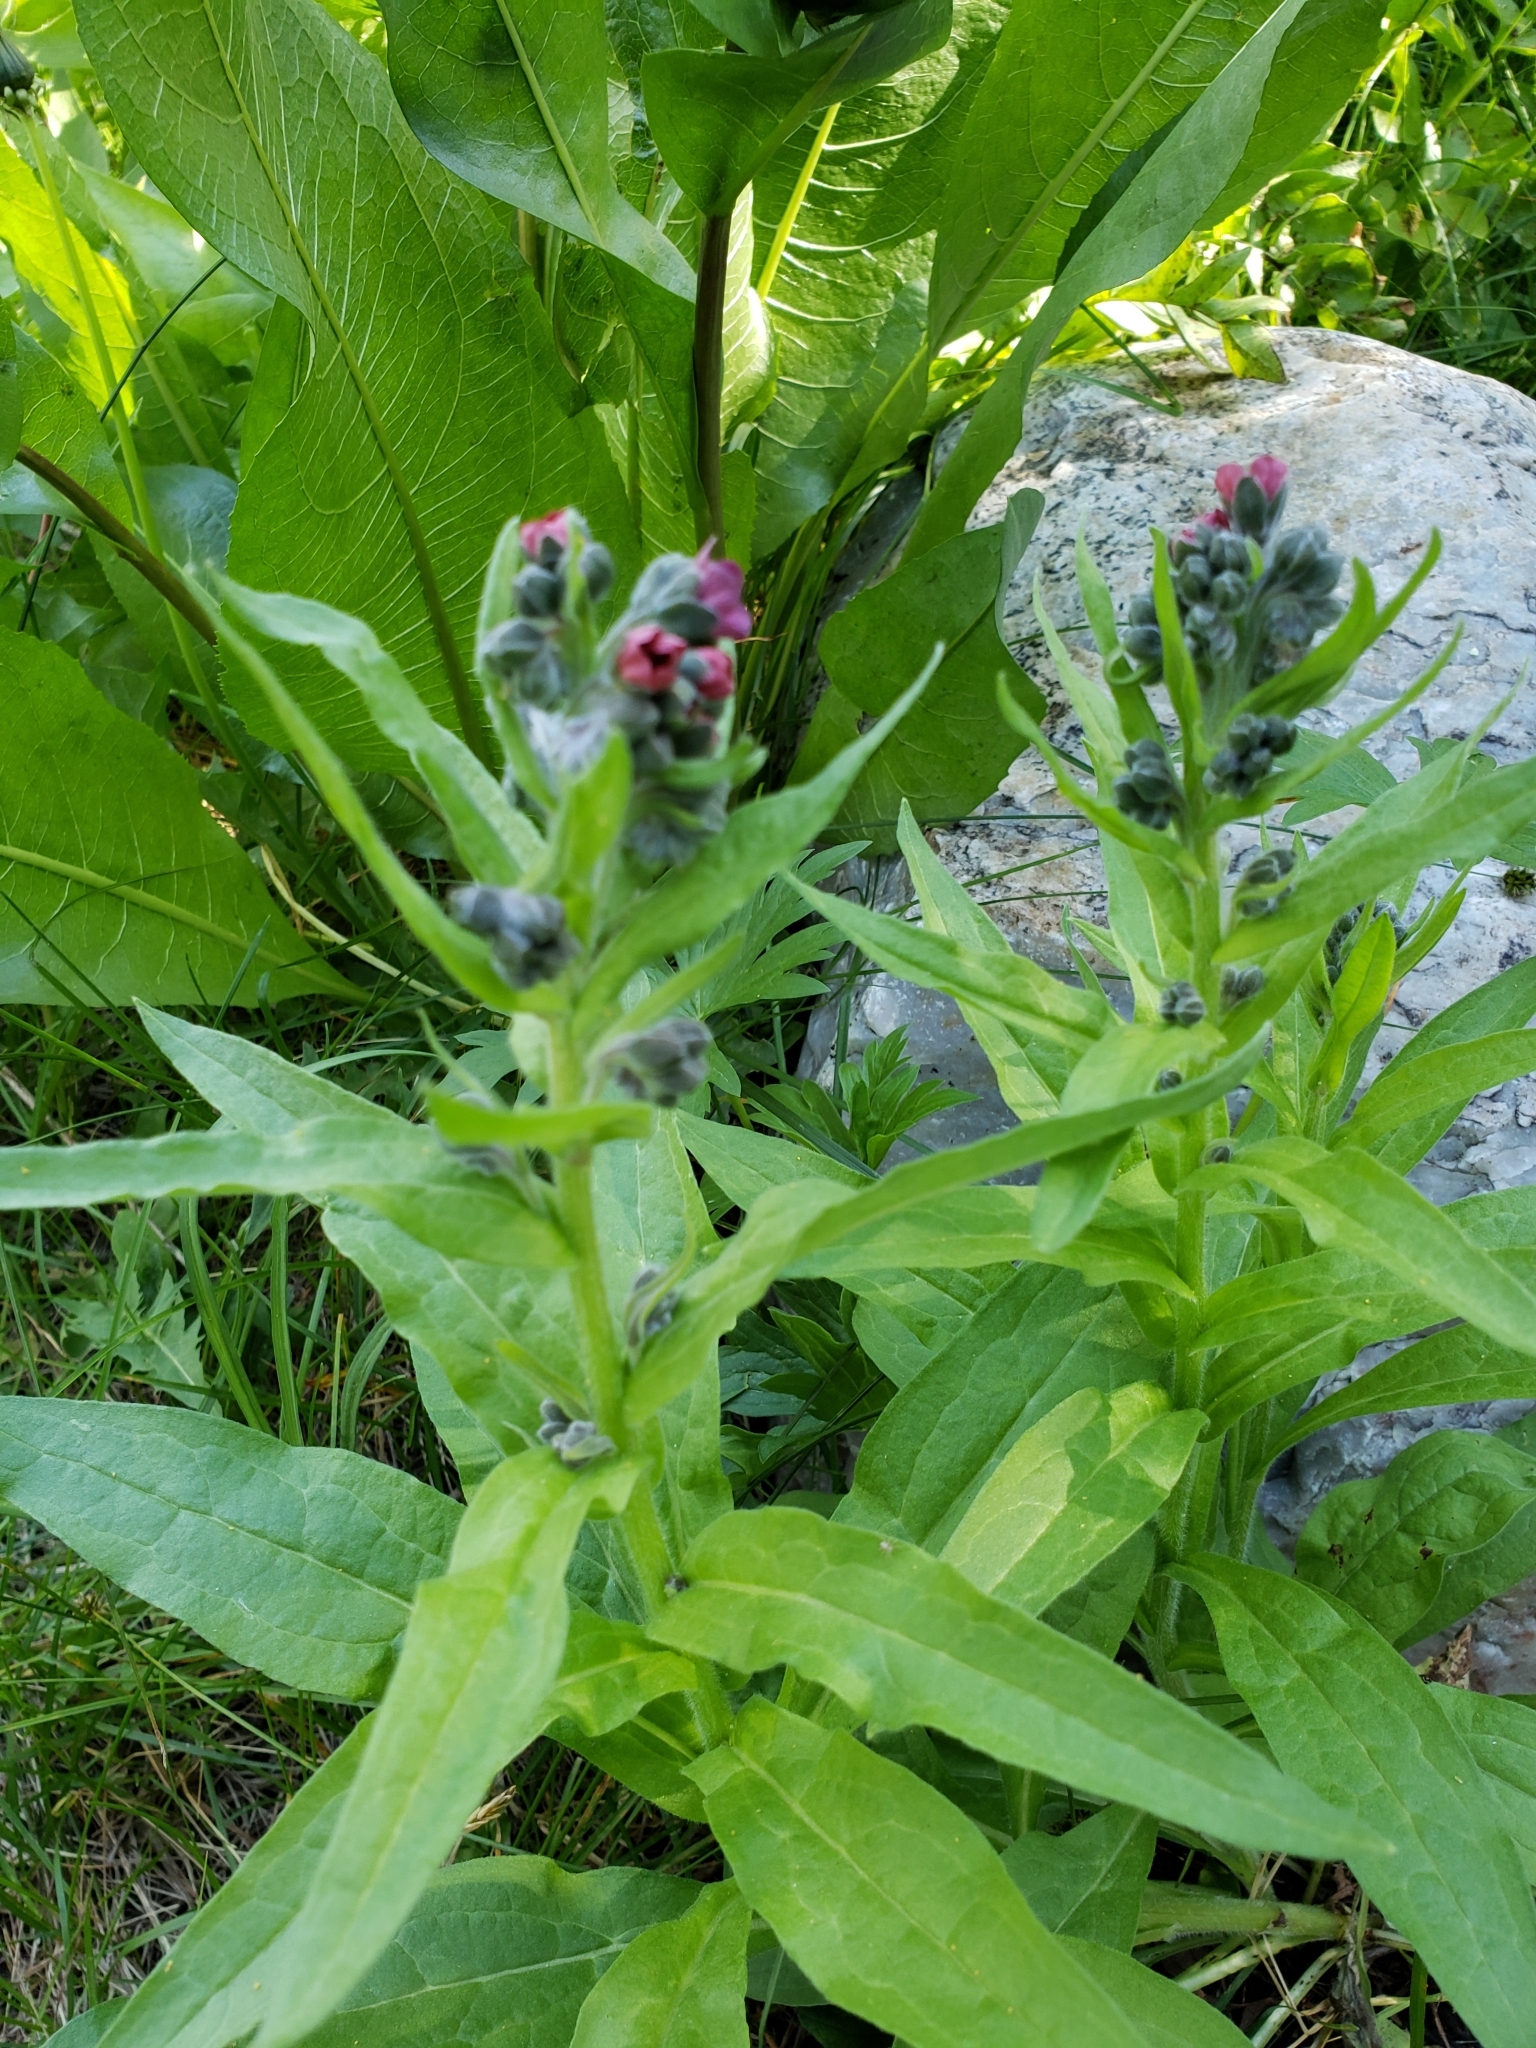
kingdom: Plantae
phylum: Tracheophyta
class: Magnoliopsida
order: Boraginales
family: Boraginaceae
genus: Cynoglossum
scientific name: Cynoglossum officinale
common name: Hound's-tongue
